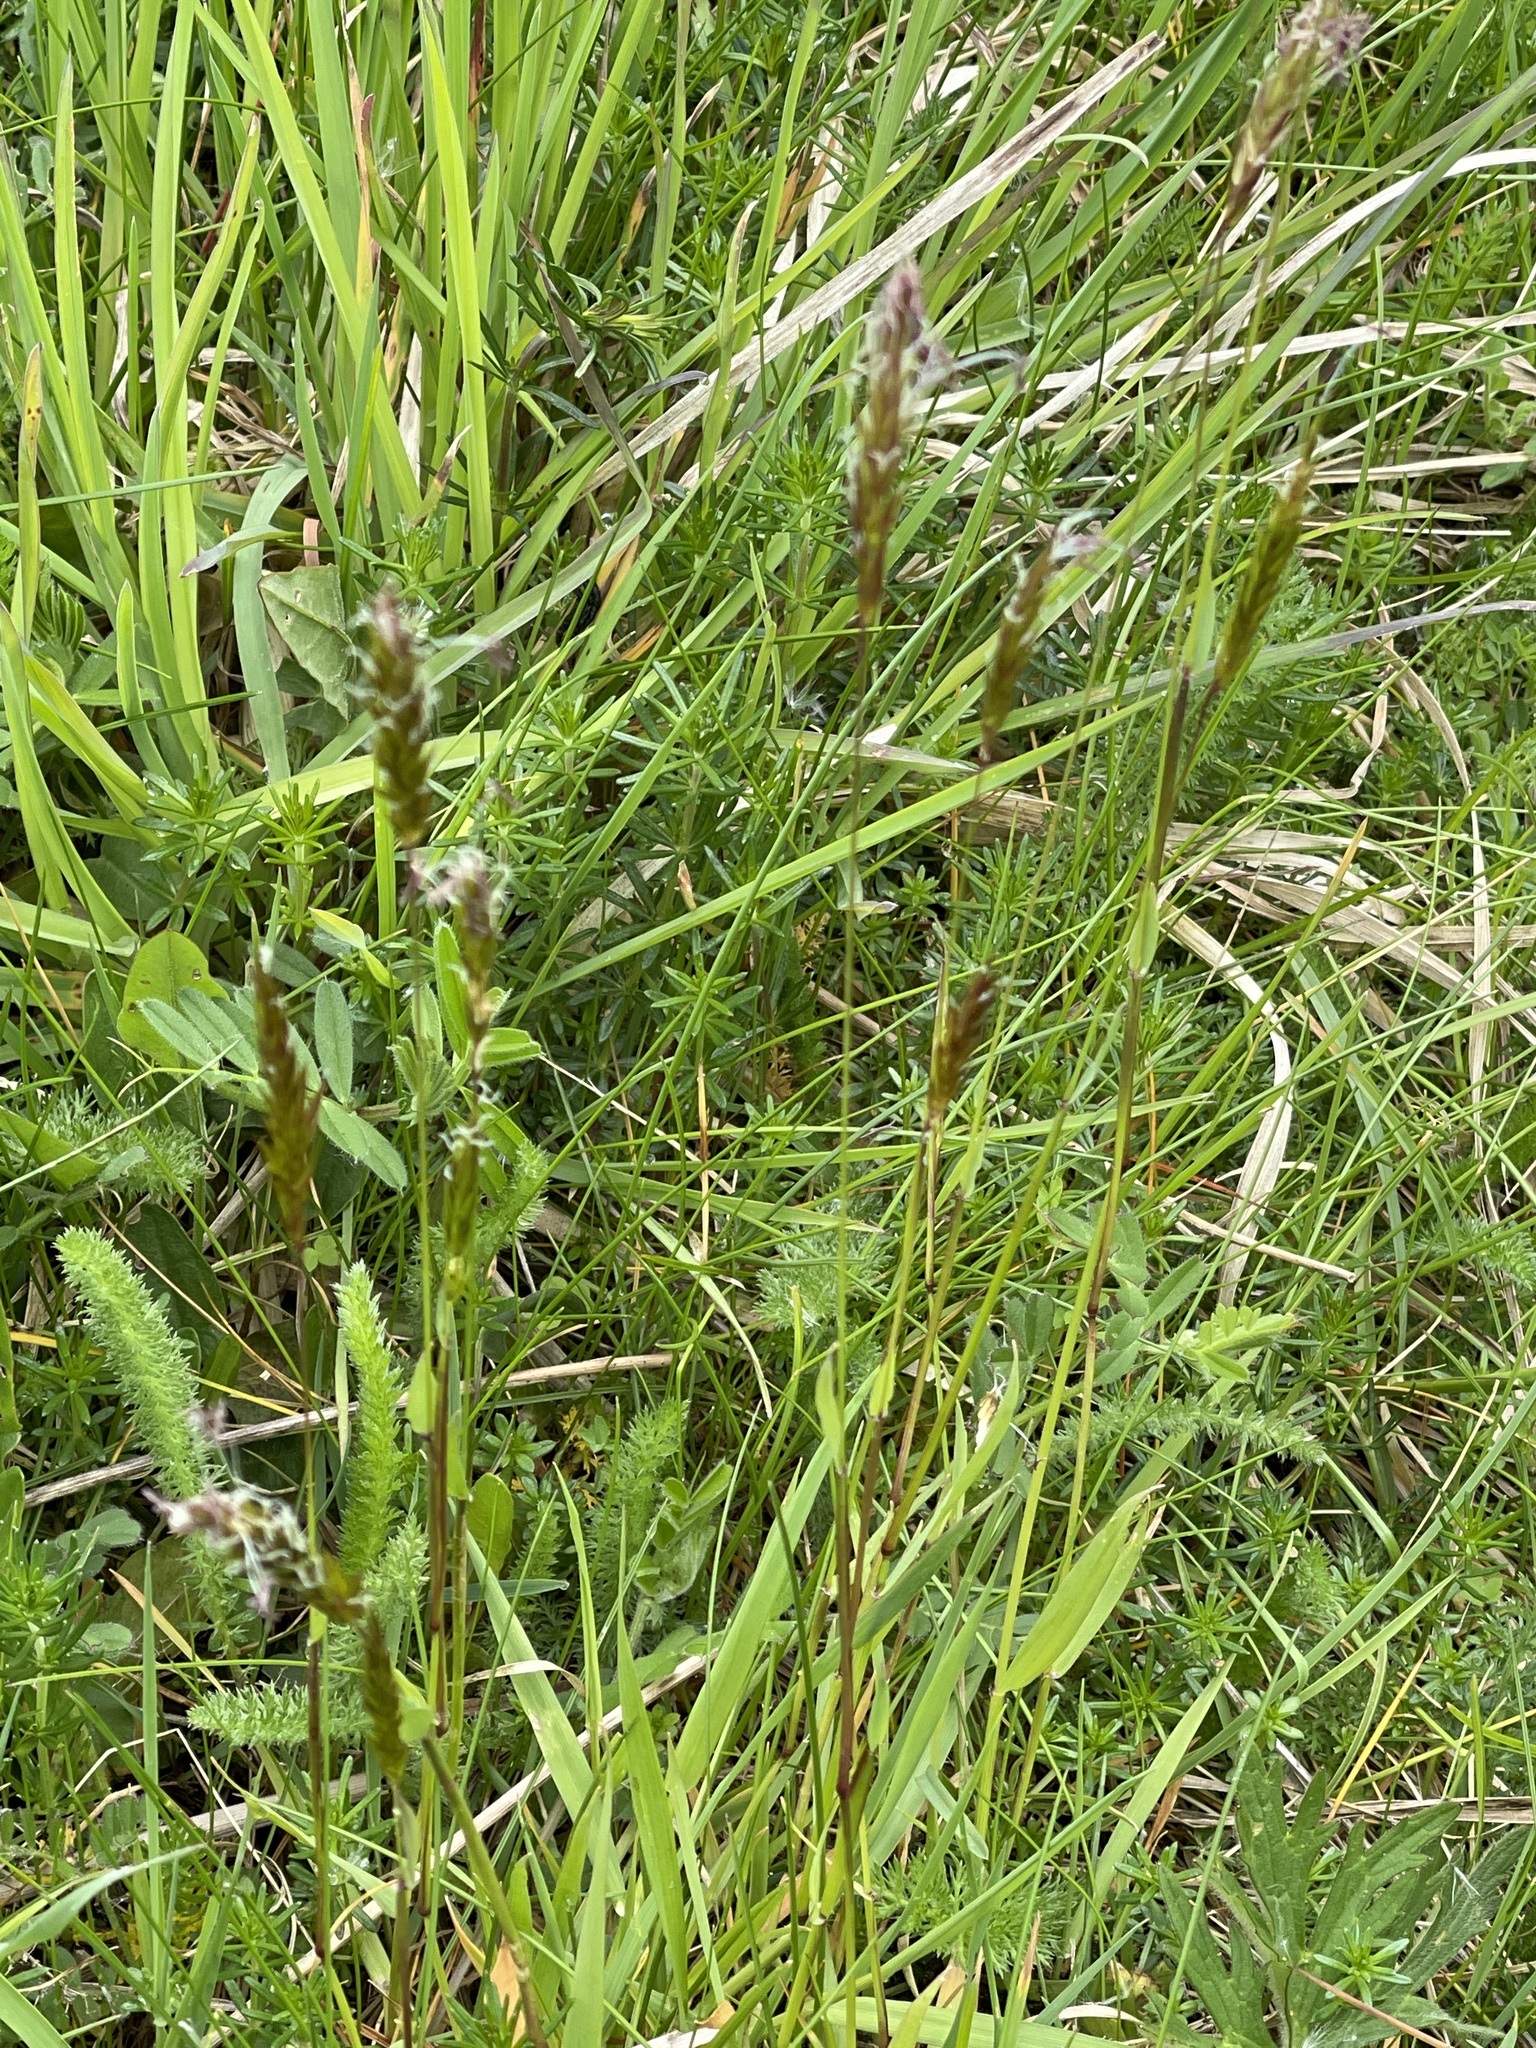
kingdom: Plantae
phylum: Tracheophyta
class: Liliopsida
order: Poales
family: Poaceae
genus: Anthoxanthum
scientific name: Anthoxanthum odoratum
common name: Sweet vernalgrass
